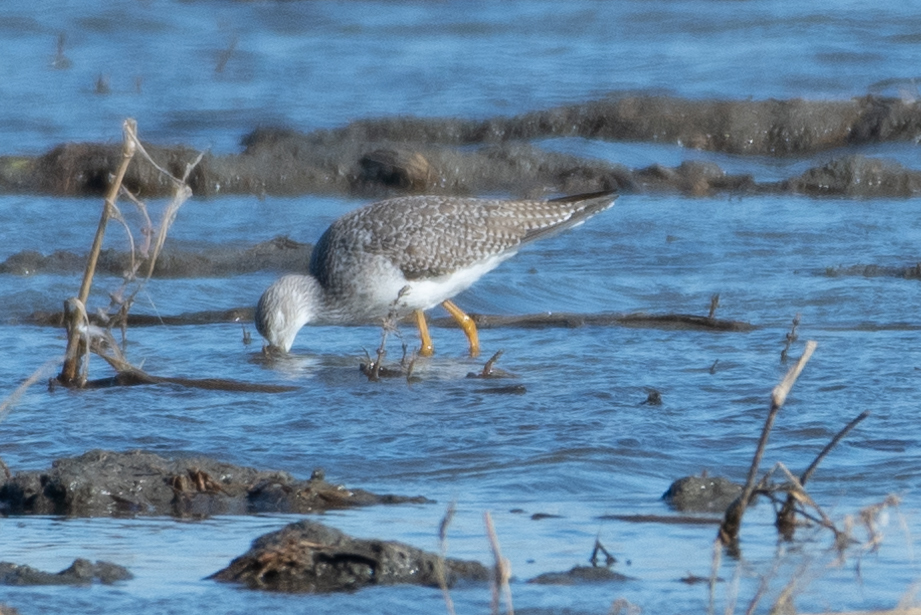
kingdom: Animalia
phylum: Chordata
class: Aves
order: Charadriiformes
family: Scolopacidae
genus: Tringa
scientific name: Tringa melanoleuca
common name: Greater yellowlegs
